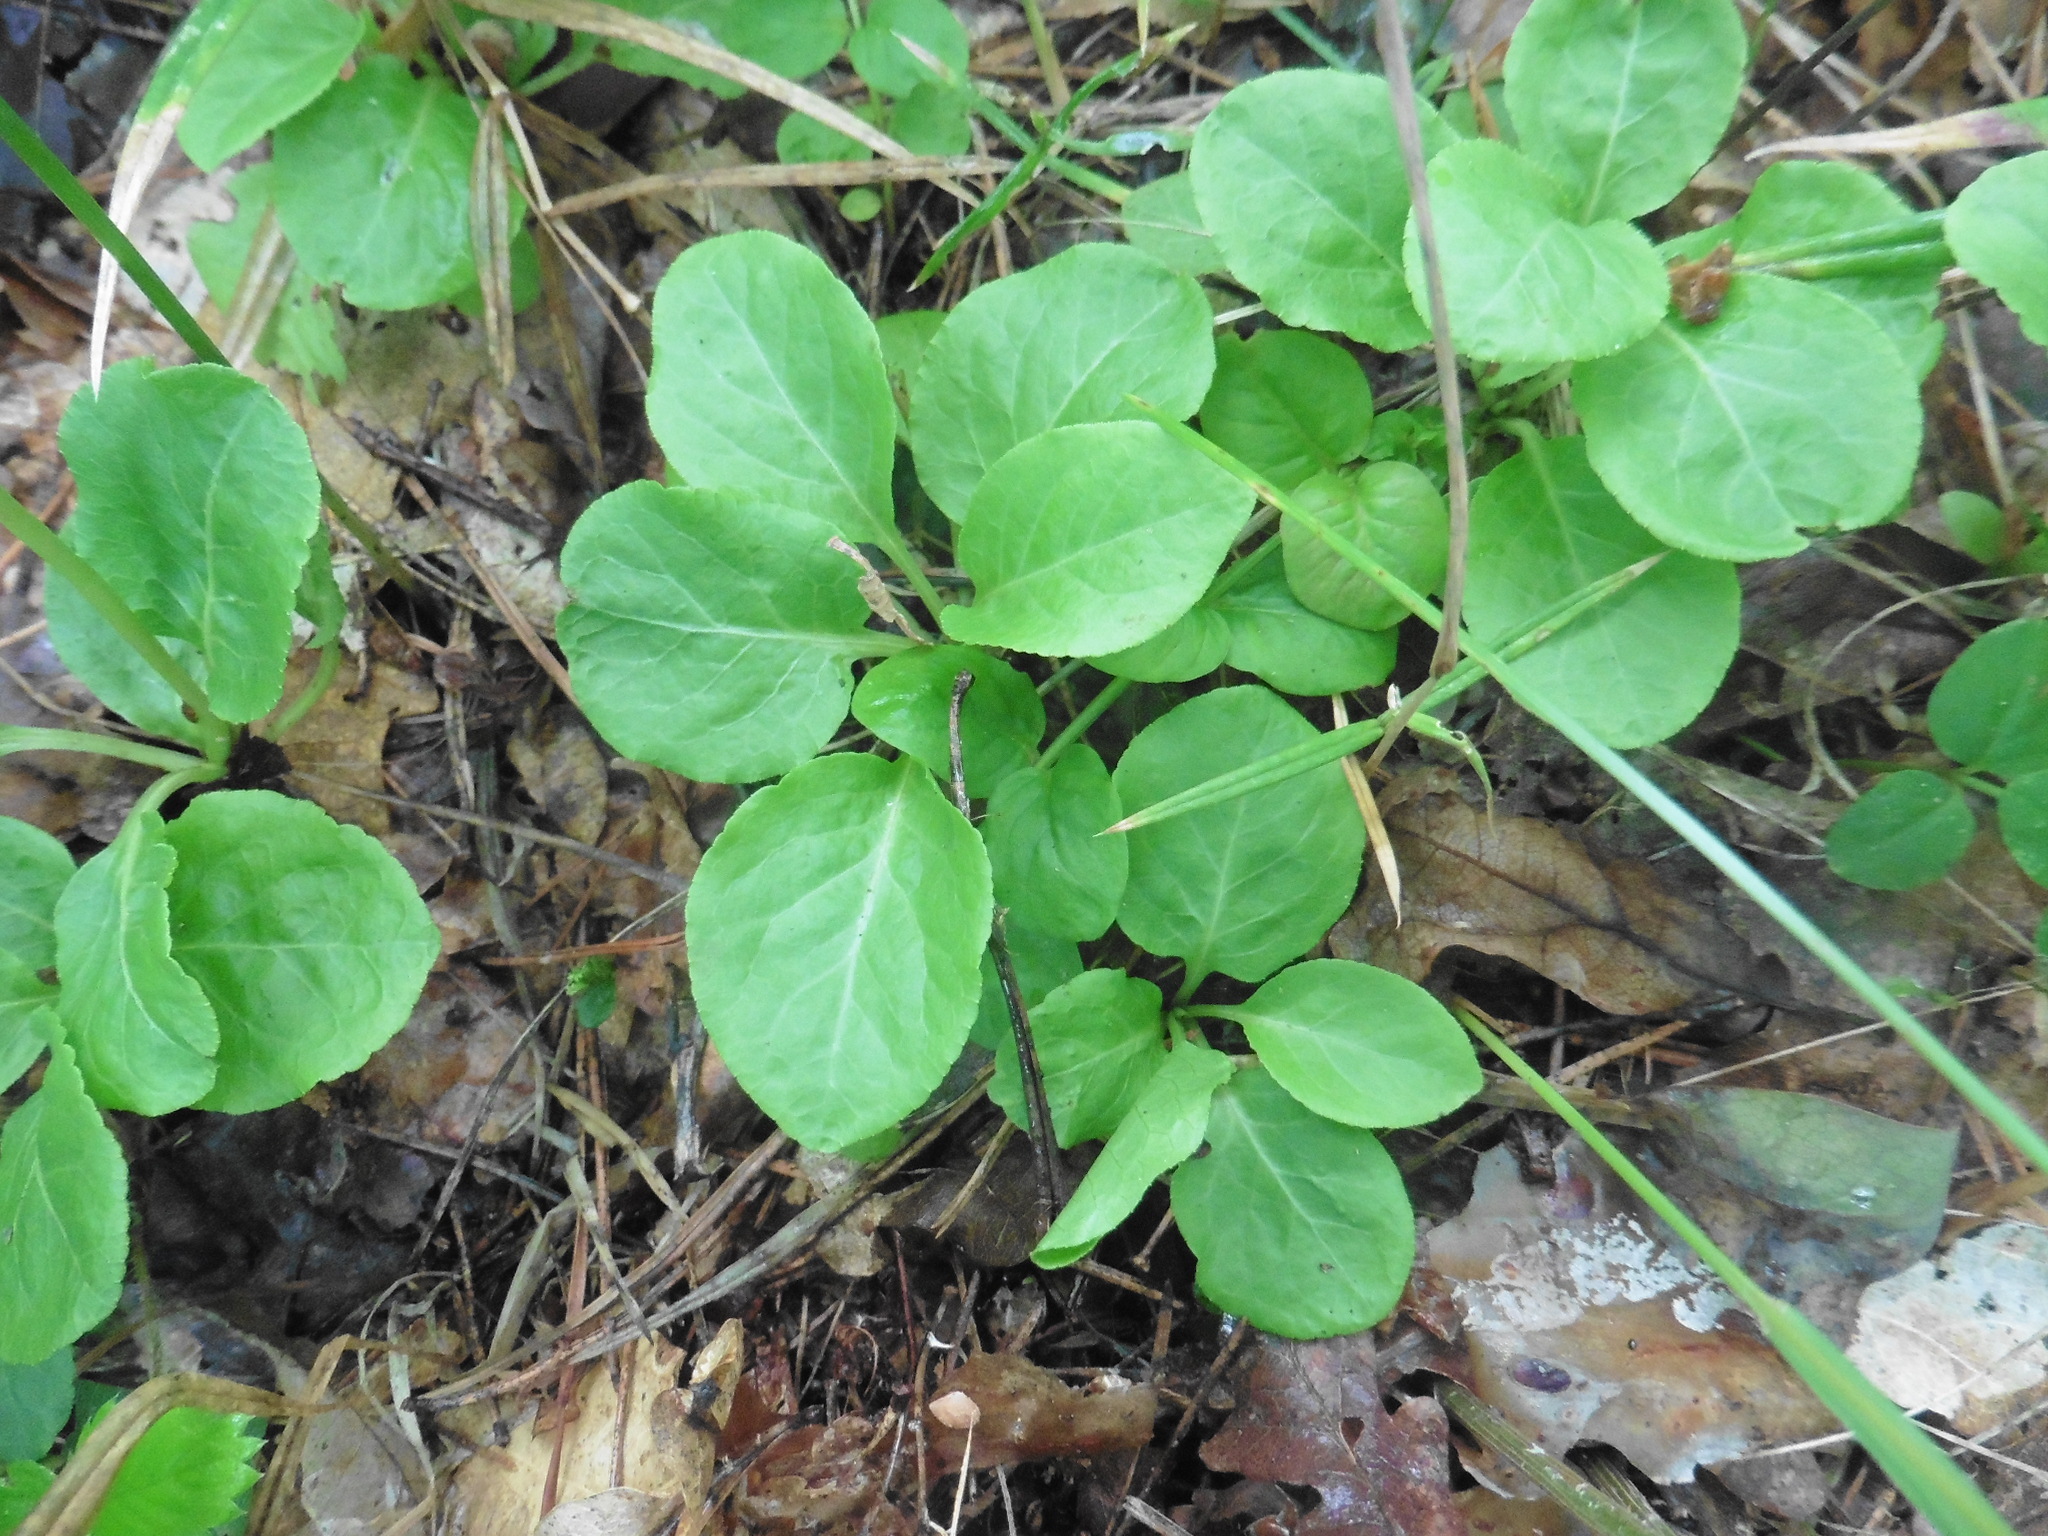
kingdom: Plantae
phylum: Tracheophyta
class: Magnoliopsida
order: Ericales
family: Ericaceae
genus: Pyrola
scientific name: Pyrola minor
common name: Common wintergreen
